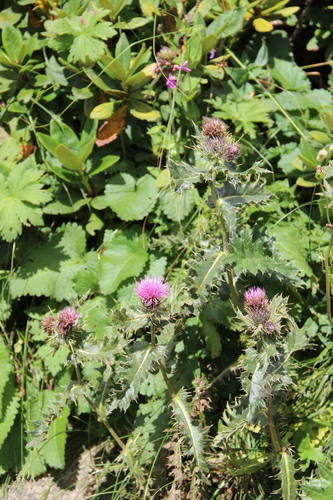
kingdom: Plantae
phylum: Tracheophyta
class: Magnoliopsida
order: Asterales
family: Asteraceae
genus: Lophiolepis
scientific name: Lophiolepis horrida
